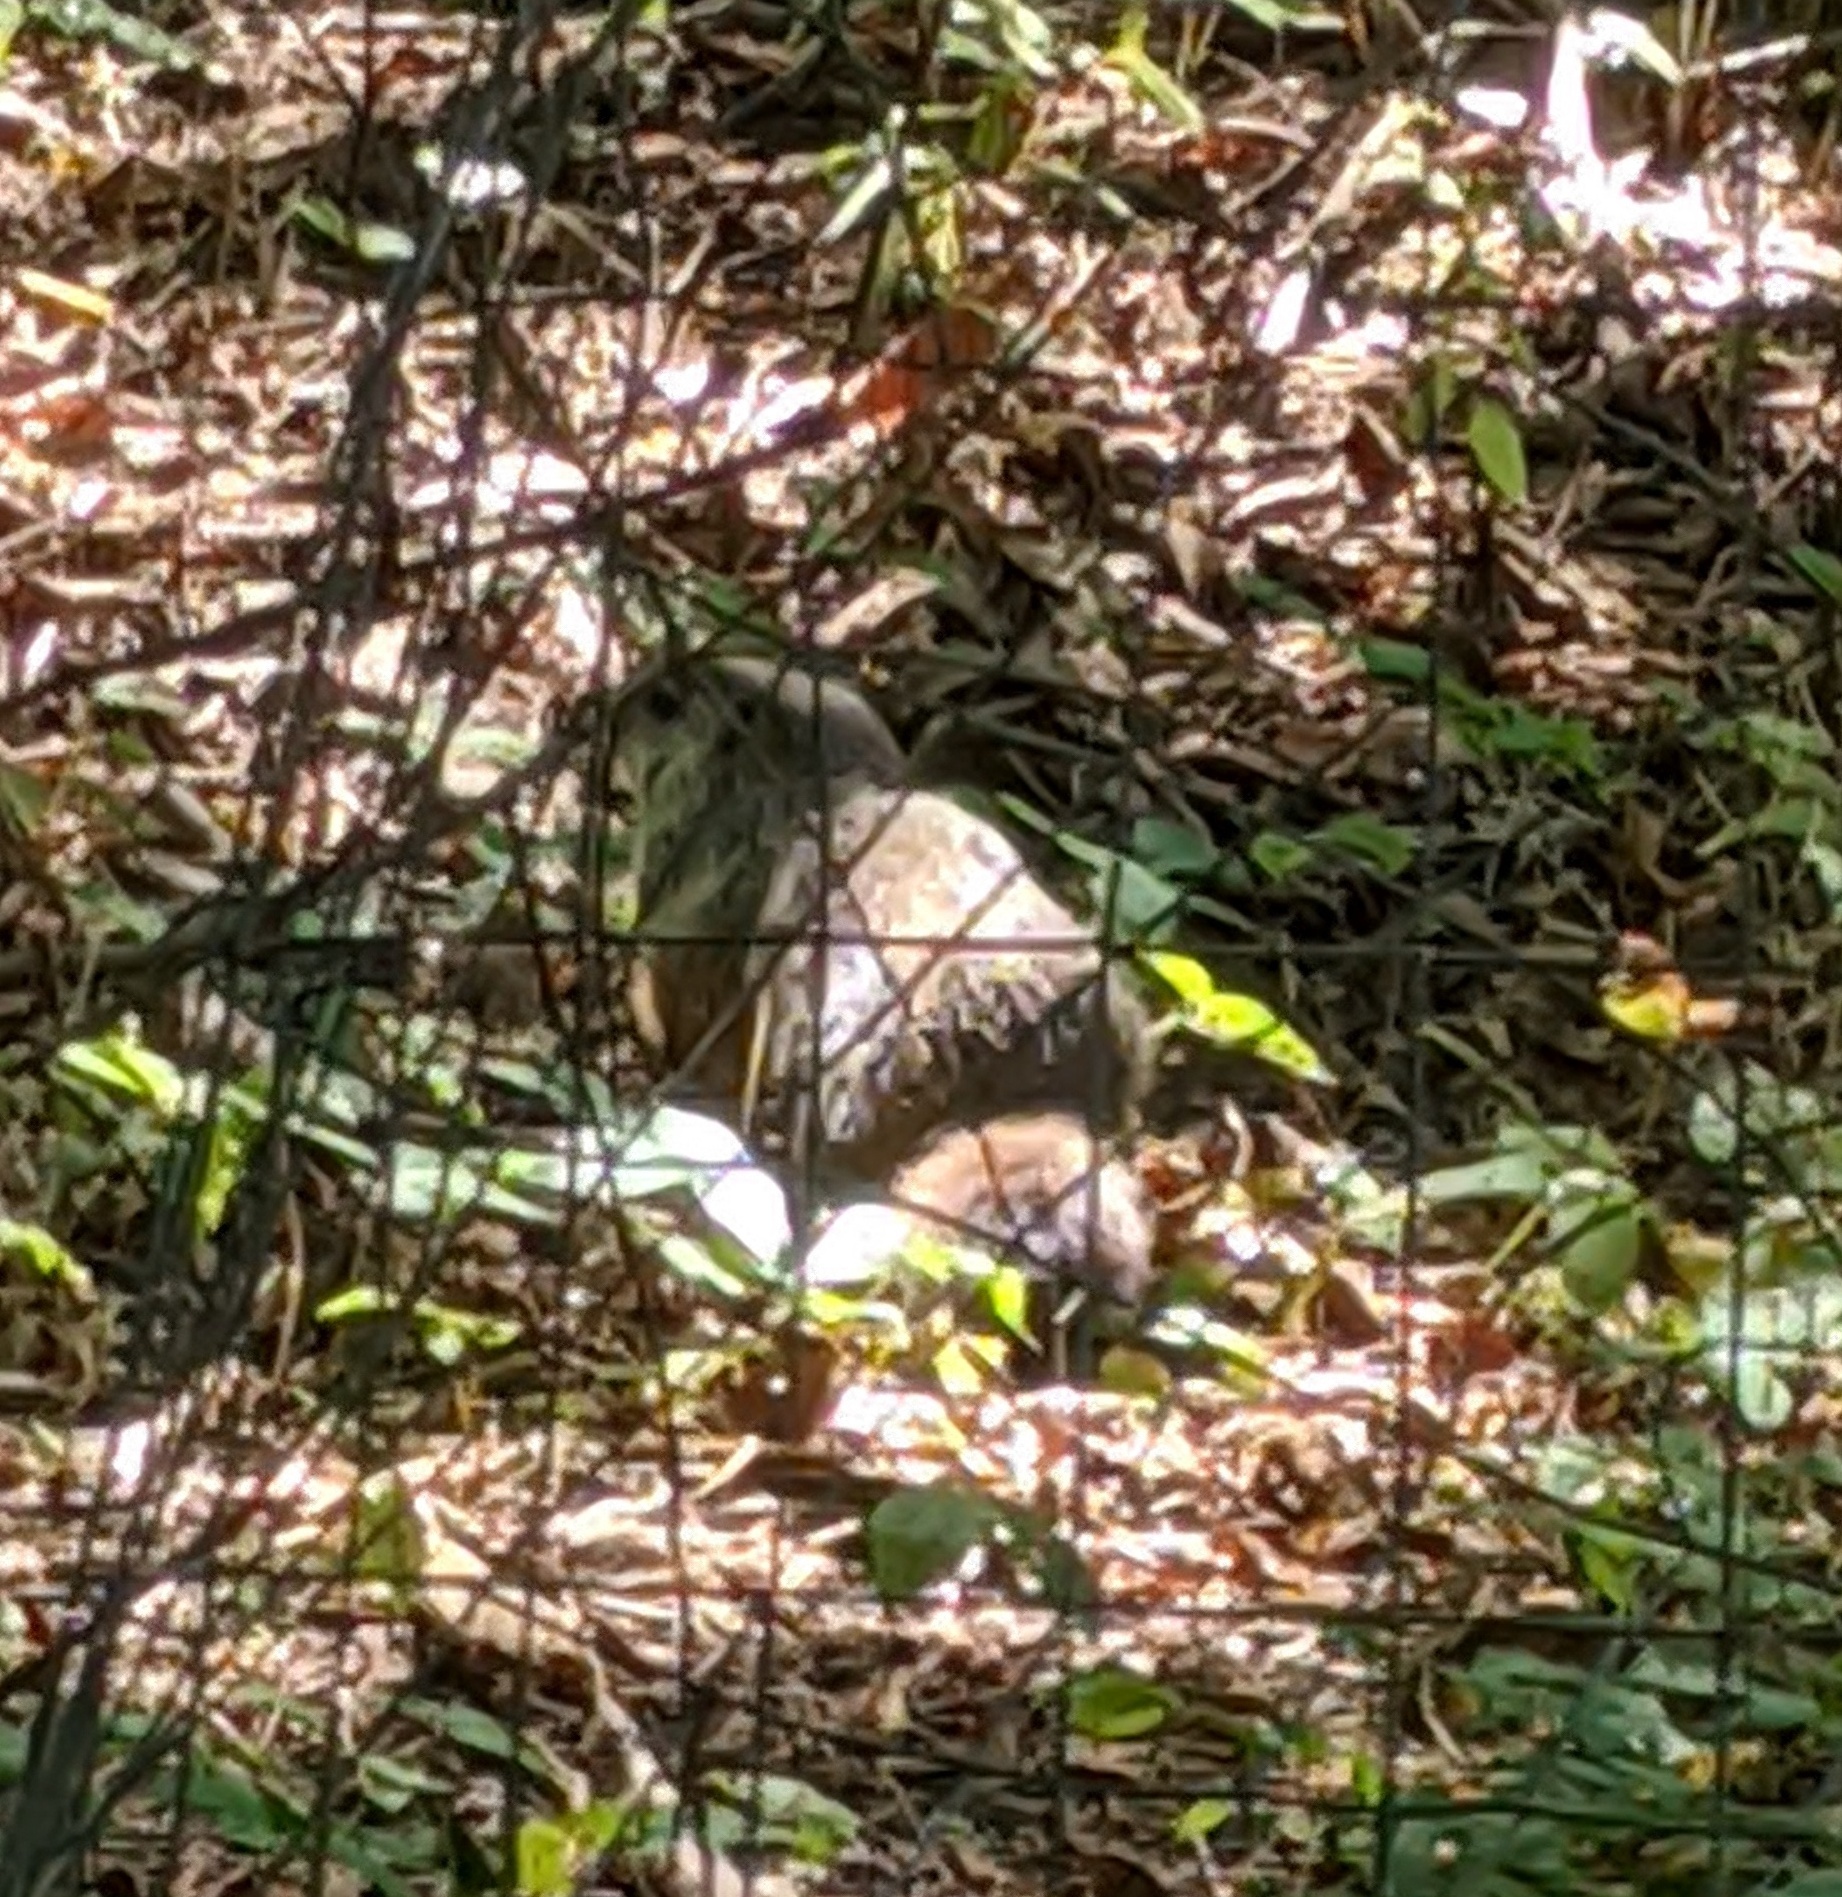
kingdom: Animalia
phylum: Chordata
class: Mammalia
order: Rodentia
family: Sciuridae
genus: Marmota
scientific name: Marmota monax
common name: Groundhog
